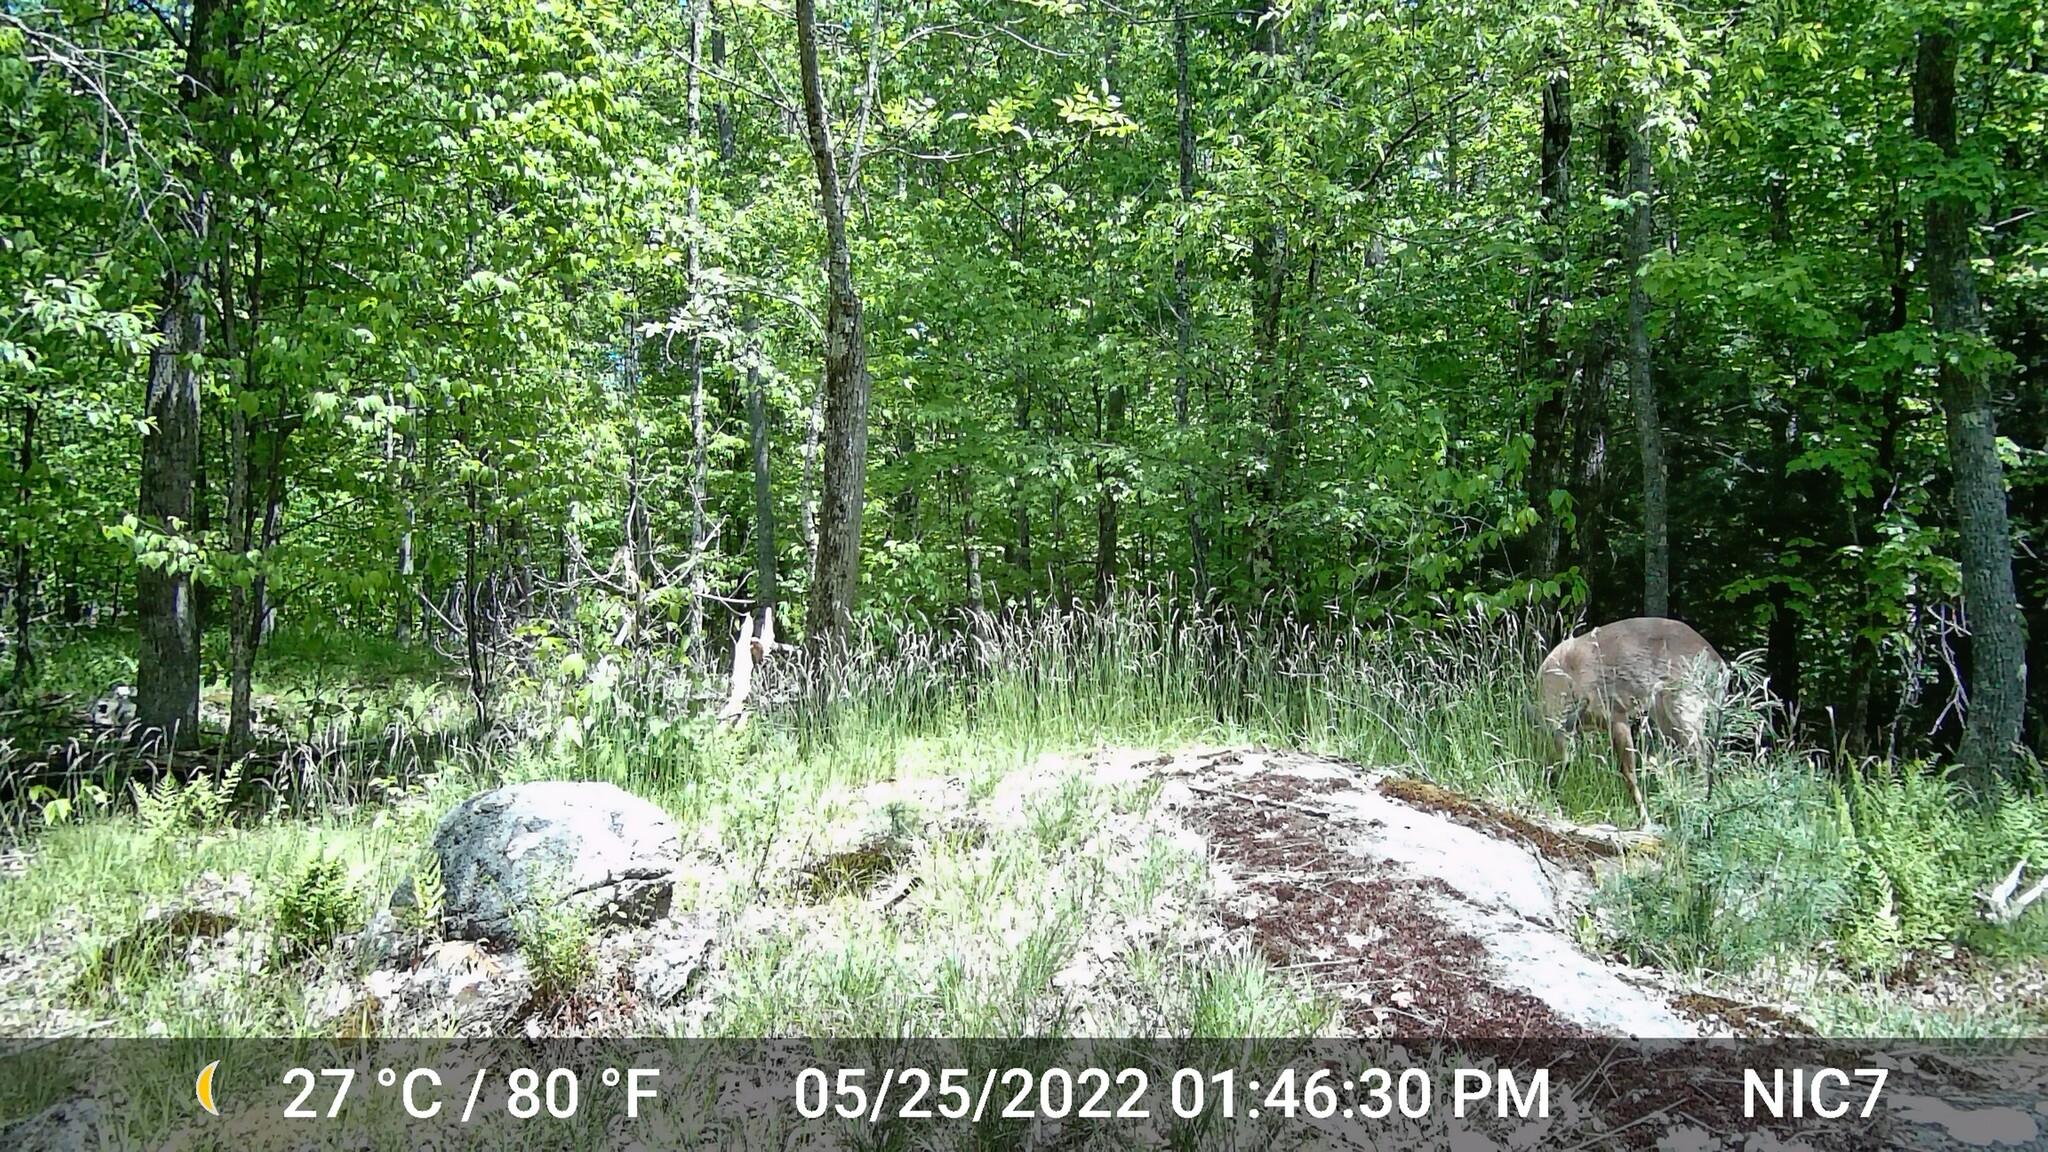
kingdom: Animalia
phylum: Chordata
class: Mammalia
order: Artiodactyla
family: Cervidae
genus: Odocoileus
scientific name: Odocoileus virginianus
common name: White-tailed deer
